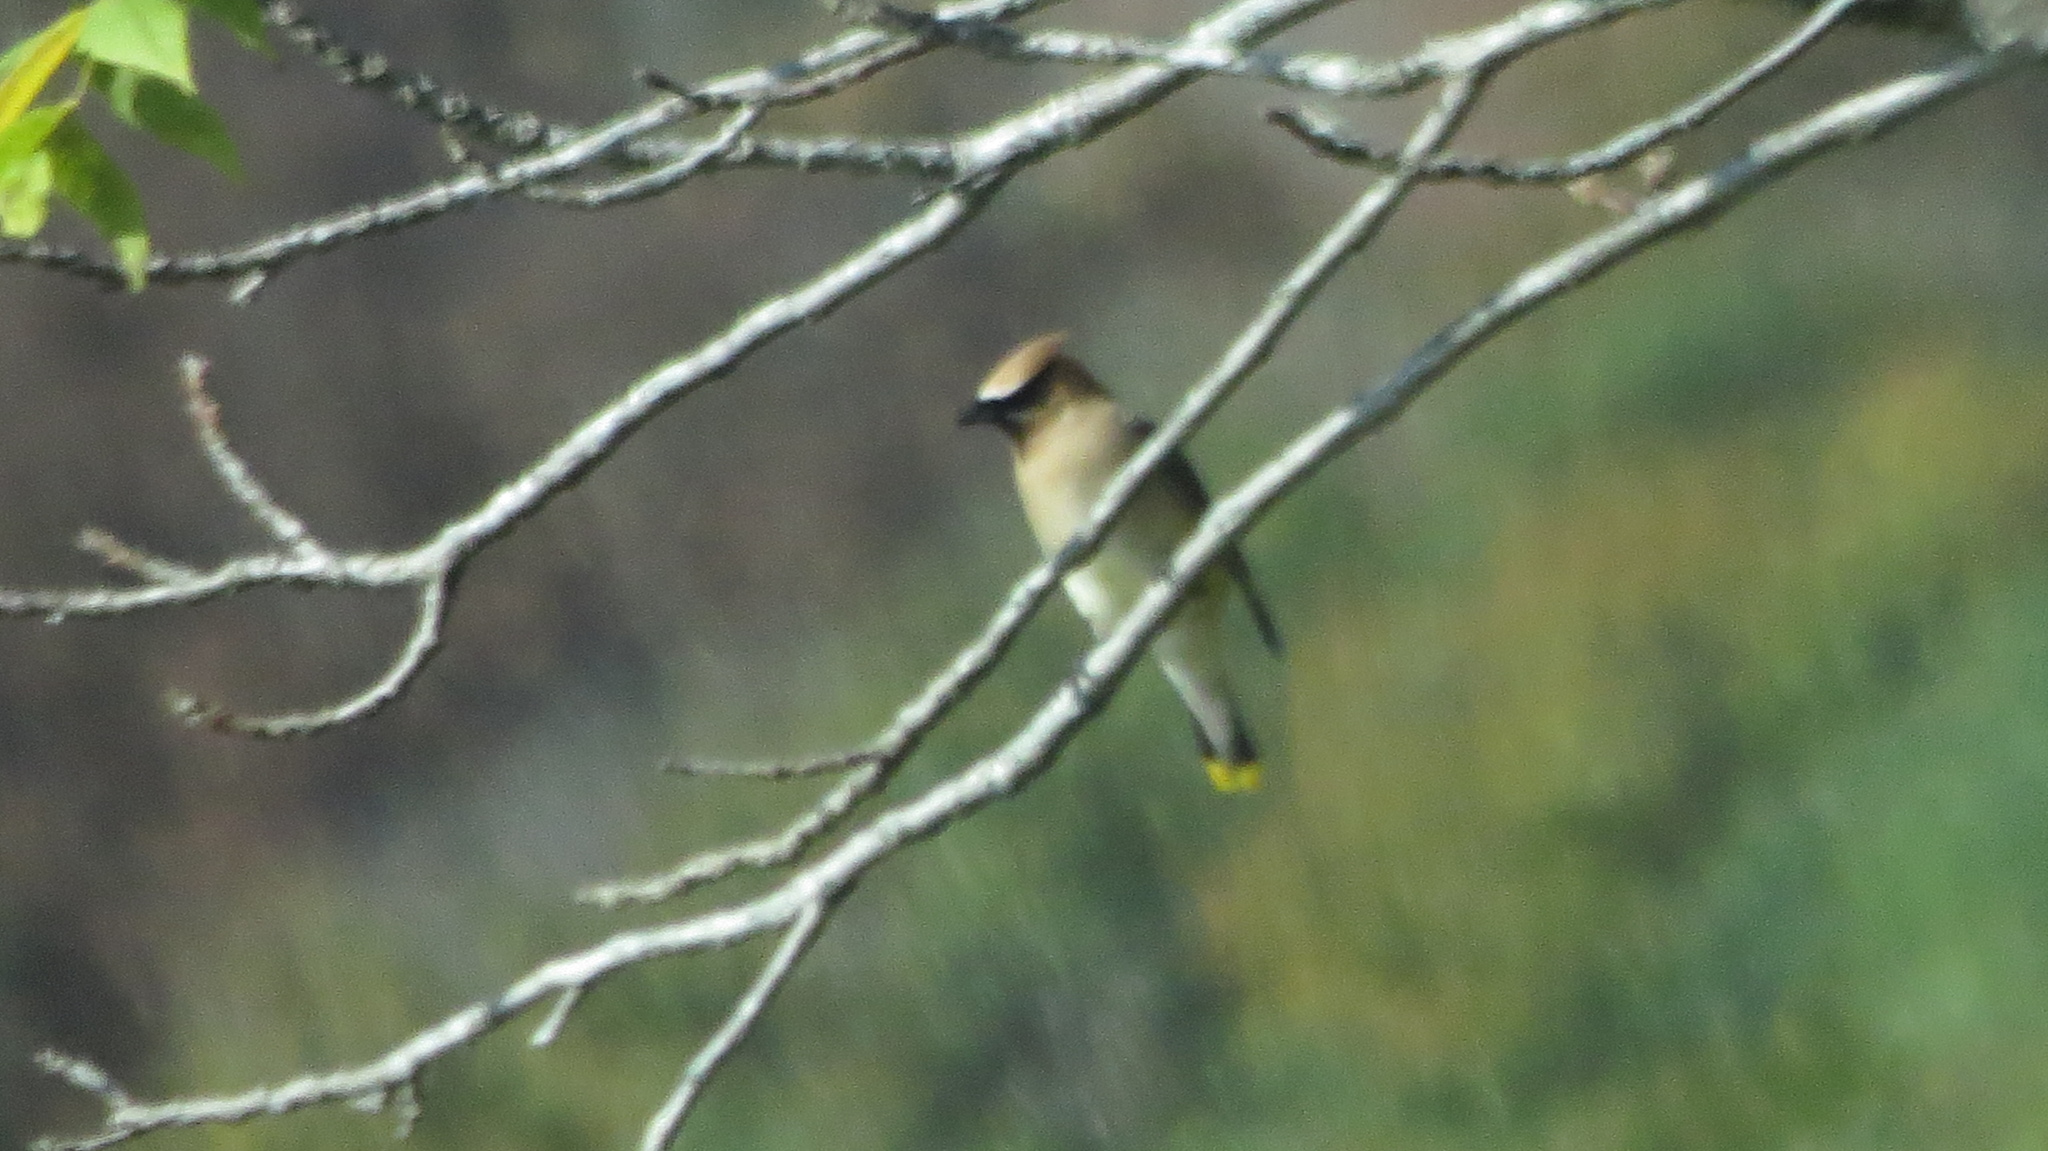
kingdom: Animalia
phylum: Chordata
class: Aves
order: Passeriformes
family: Bombycillidae
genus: Bombycilla
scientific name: Bombycilla cedrorum
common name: Cedar waxwing
